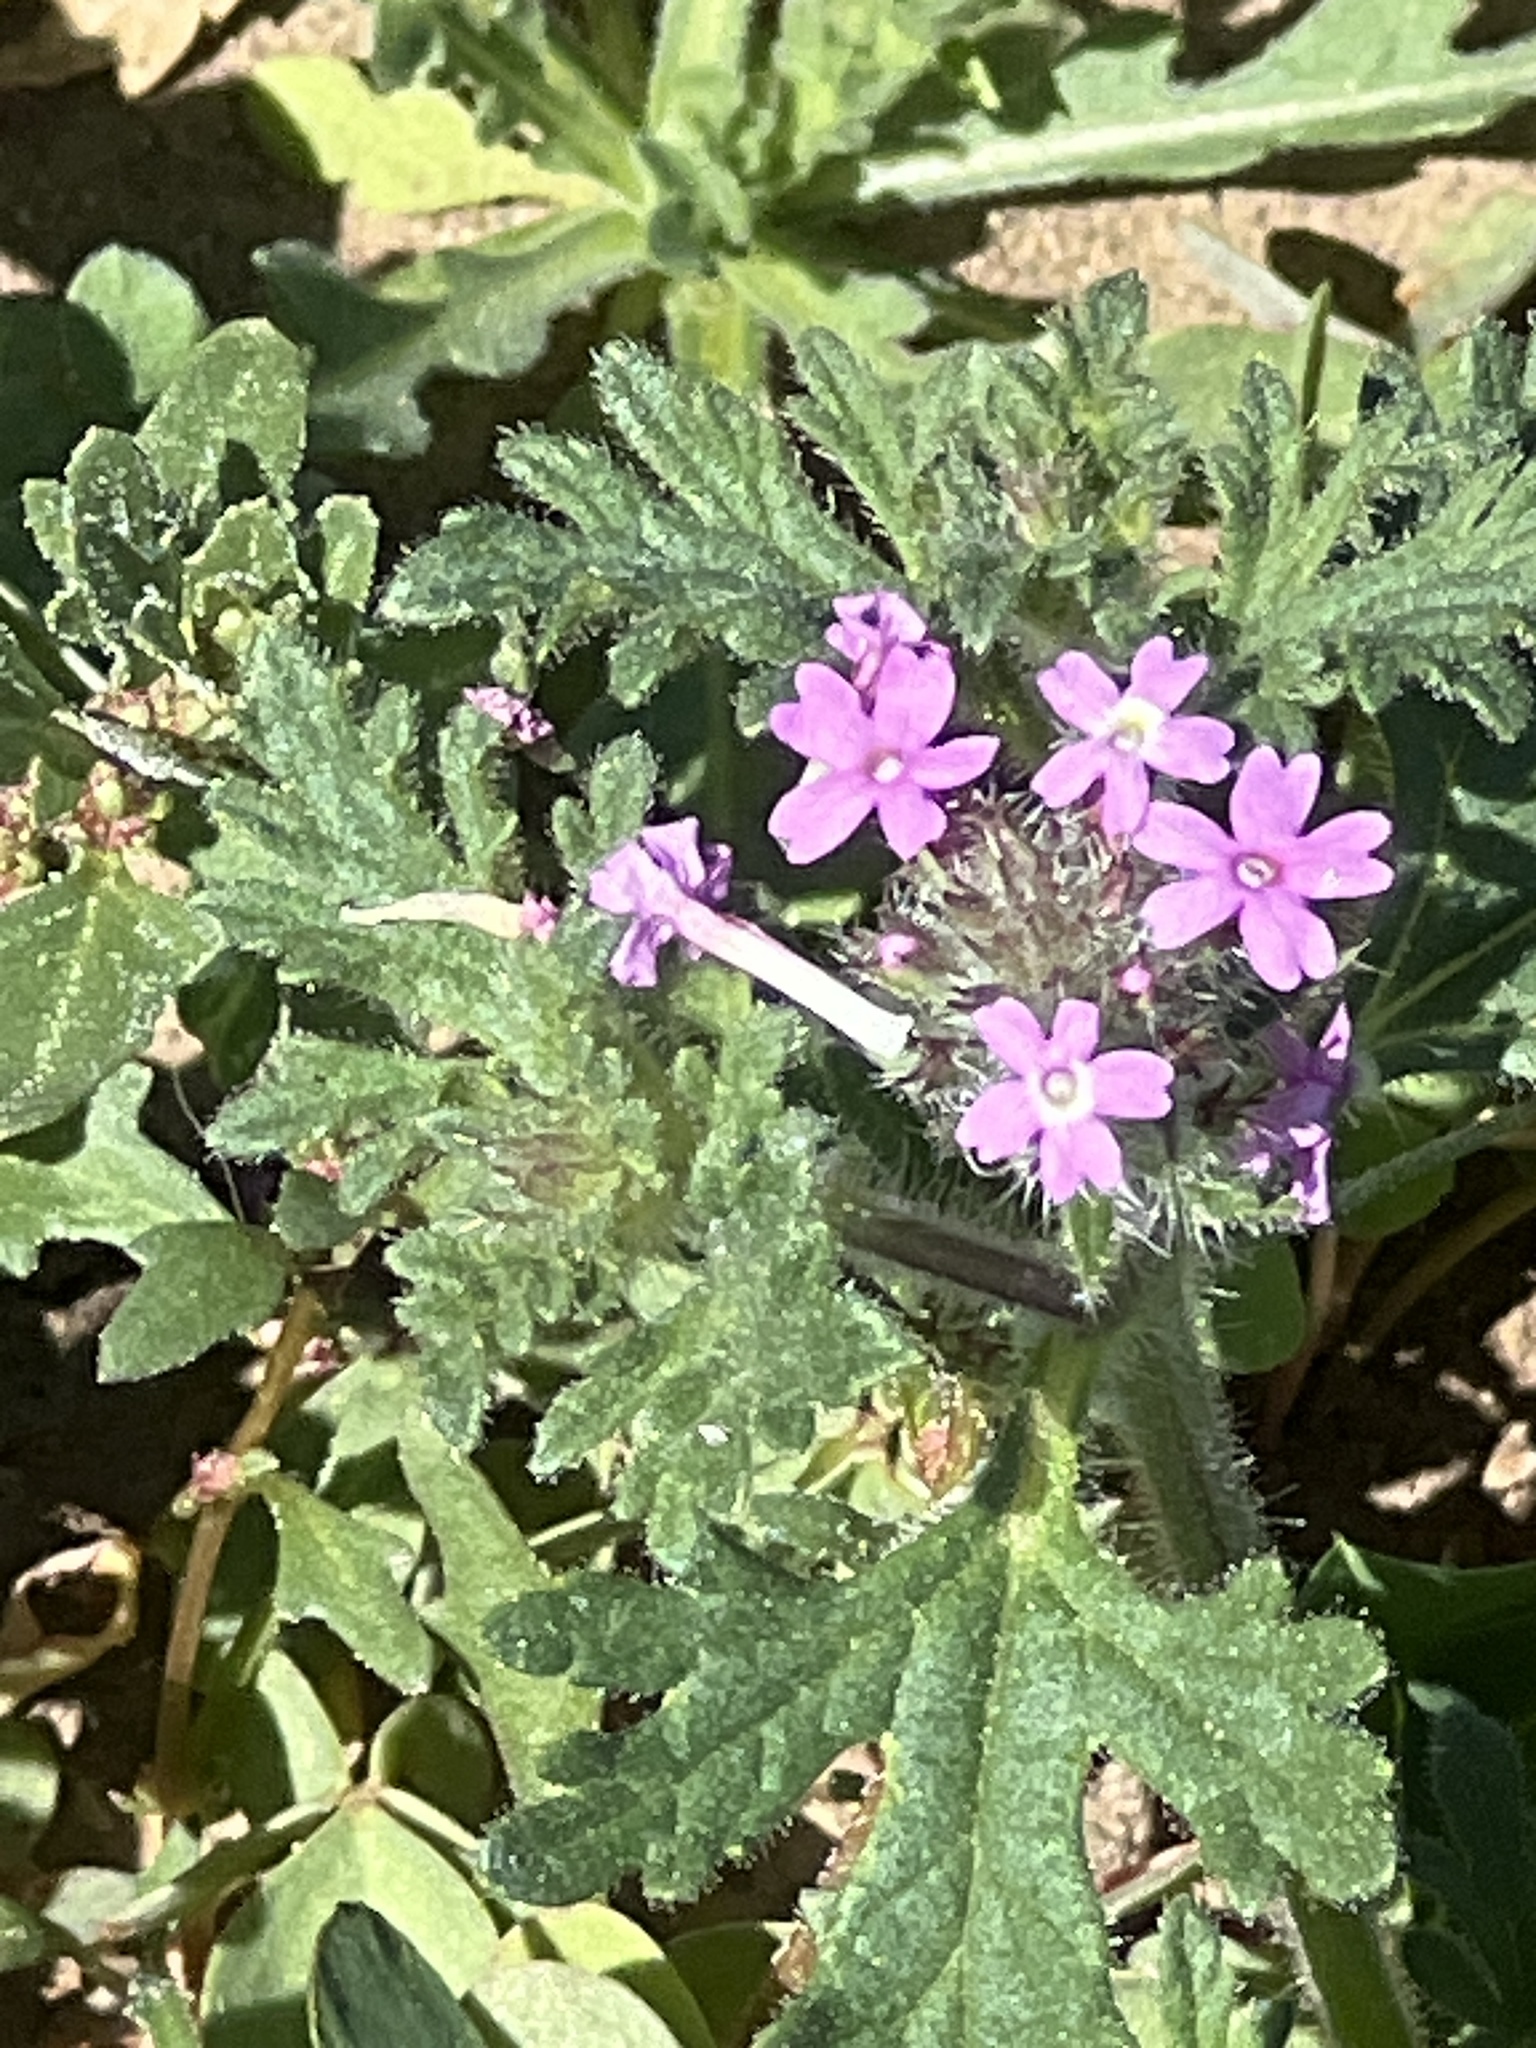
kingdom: Plantae
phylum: Tracheophyta
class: Magnoliopsida
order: Lamiales
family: Verbenaceae
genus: Verbena
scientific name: Verbena pumila
